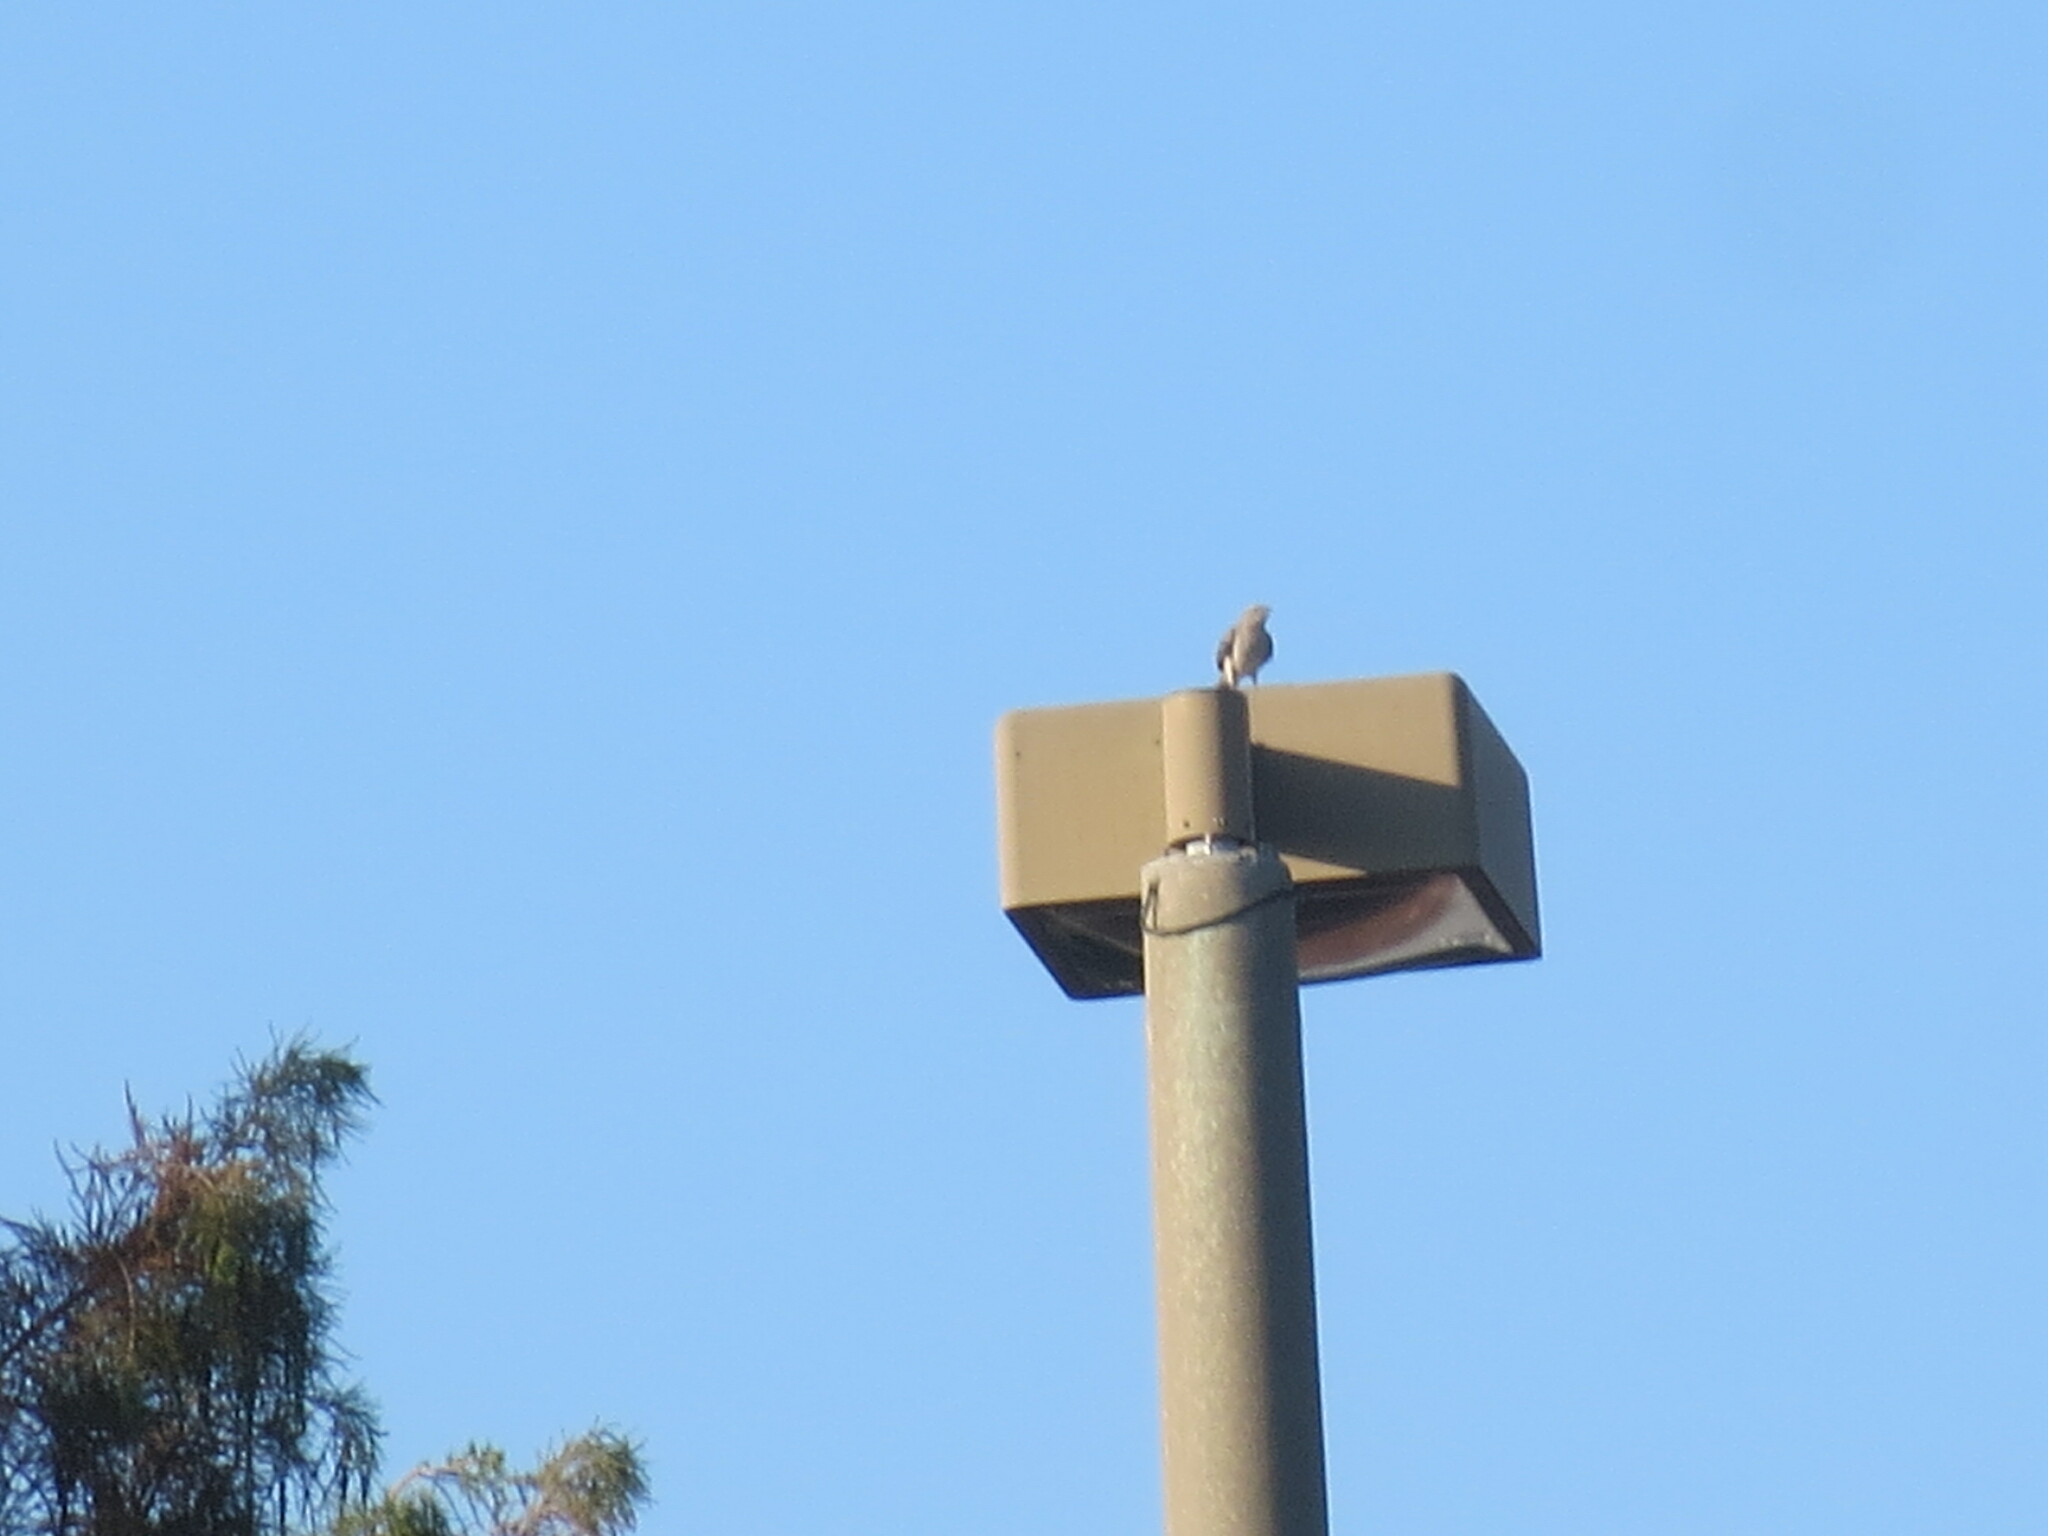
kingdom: Animalia
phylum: Chordata
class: Aves
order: Passeriformes
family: Mimidae
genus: Mimus
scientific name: Mimus polyglottos
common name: Northern mockingbird
